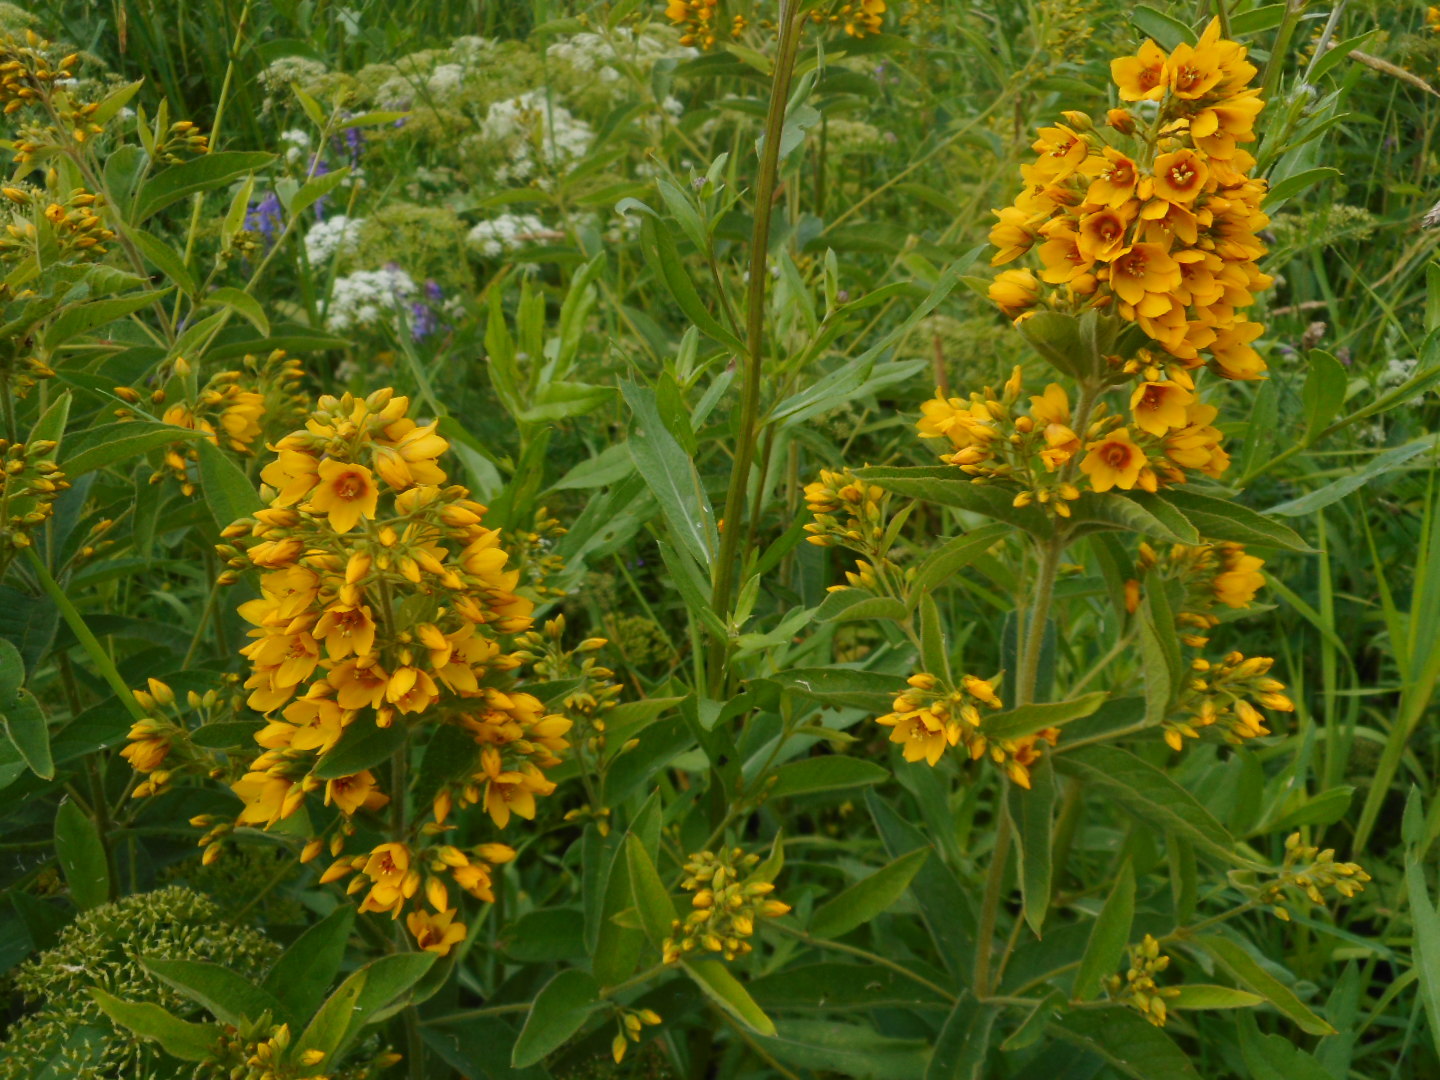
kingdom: Plantae
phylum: Tracheophyta
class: Magnoliopsida
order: Ericales
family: Primulaceae
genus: Lysimachia
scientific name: Lysimachia vulgaris
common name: Yellow loosestrife
